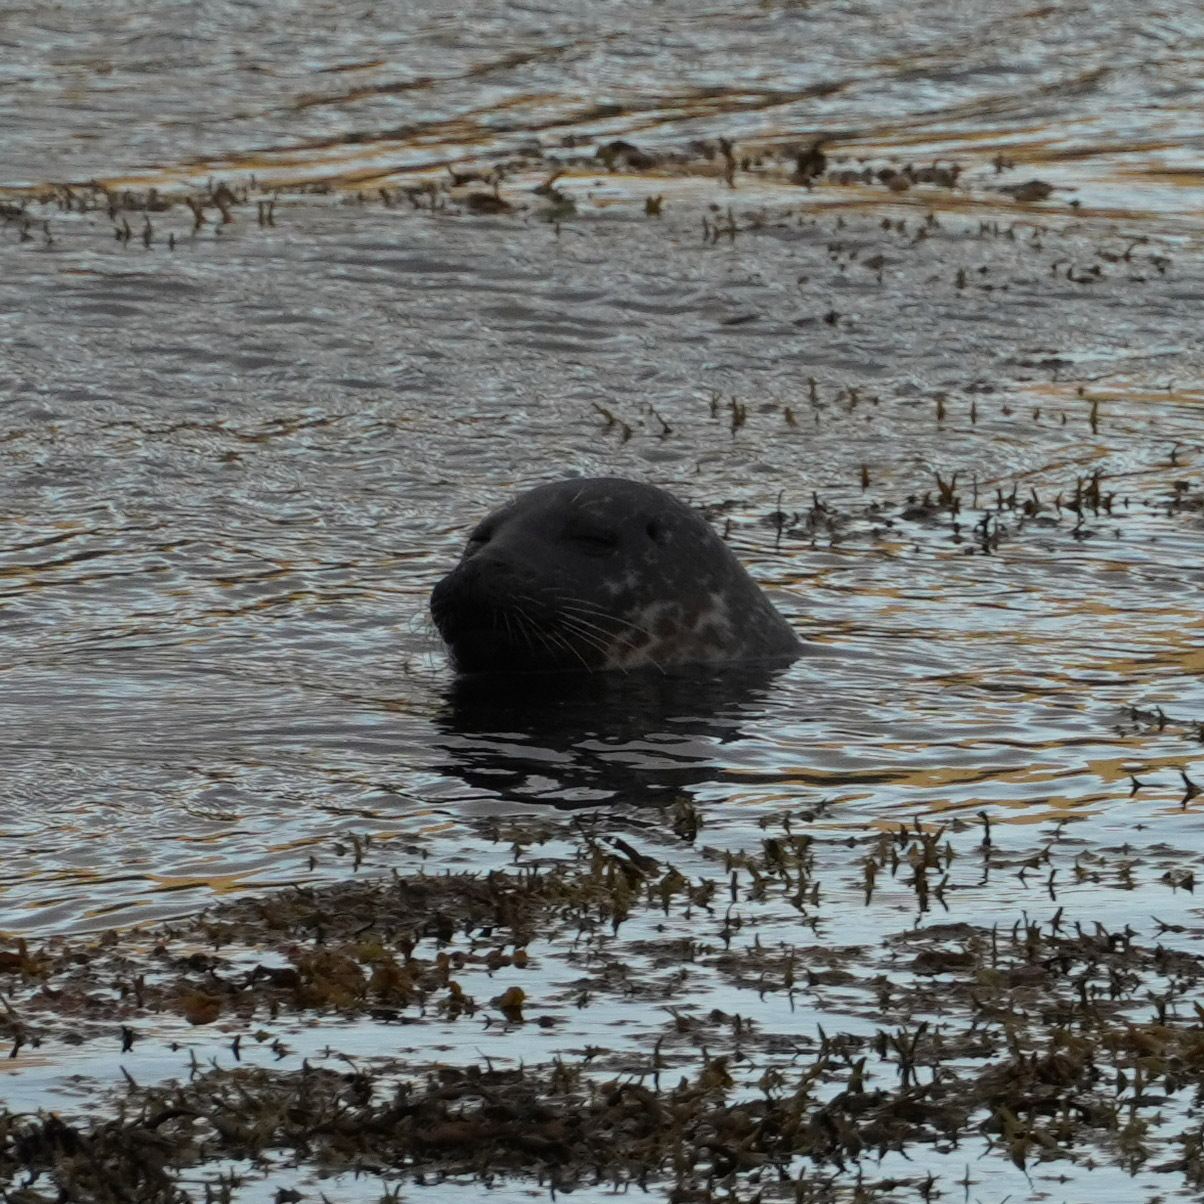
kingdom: Animalia
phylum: Chordata
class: Mammalia
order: Carnivora
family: Phocidae
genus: Phoca
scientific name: Phoca vitulina
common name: Harbor seal
